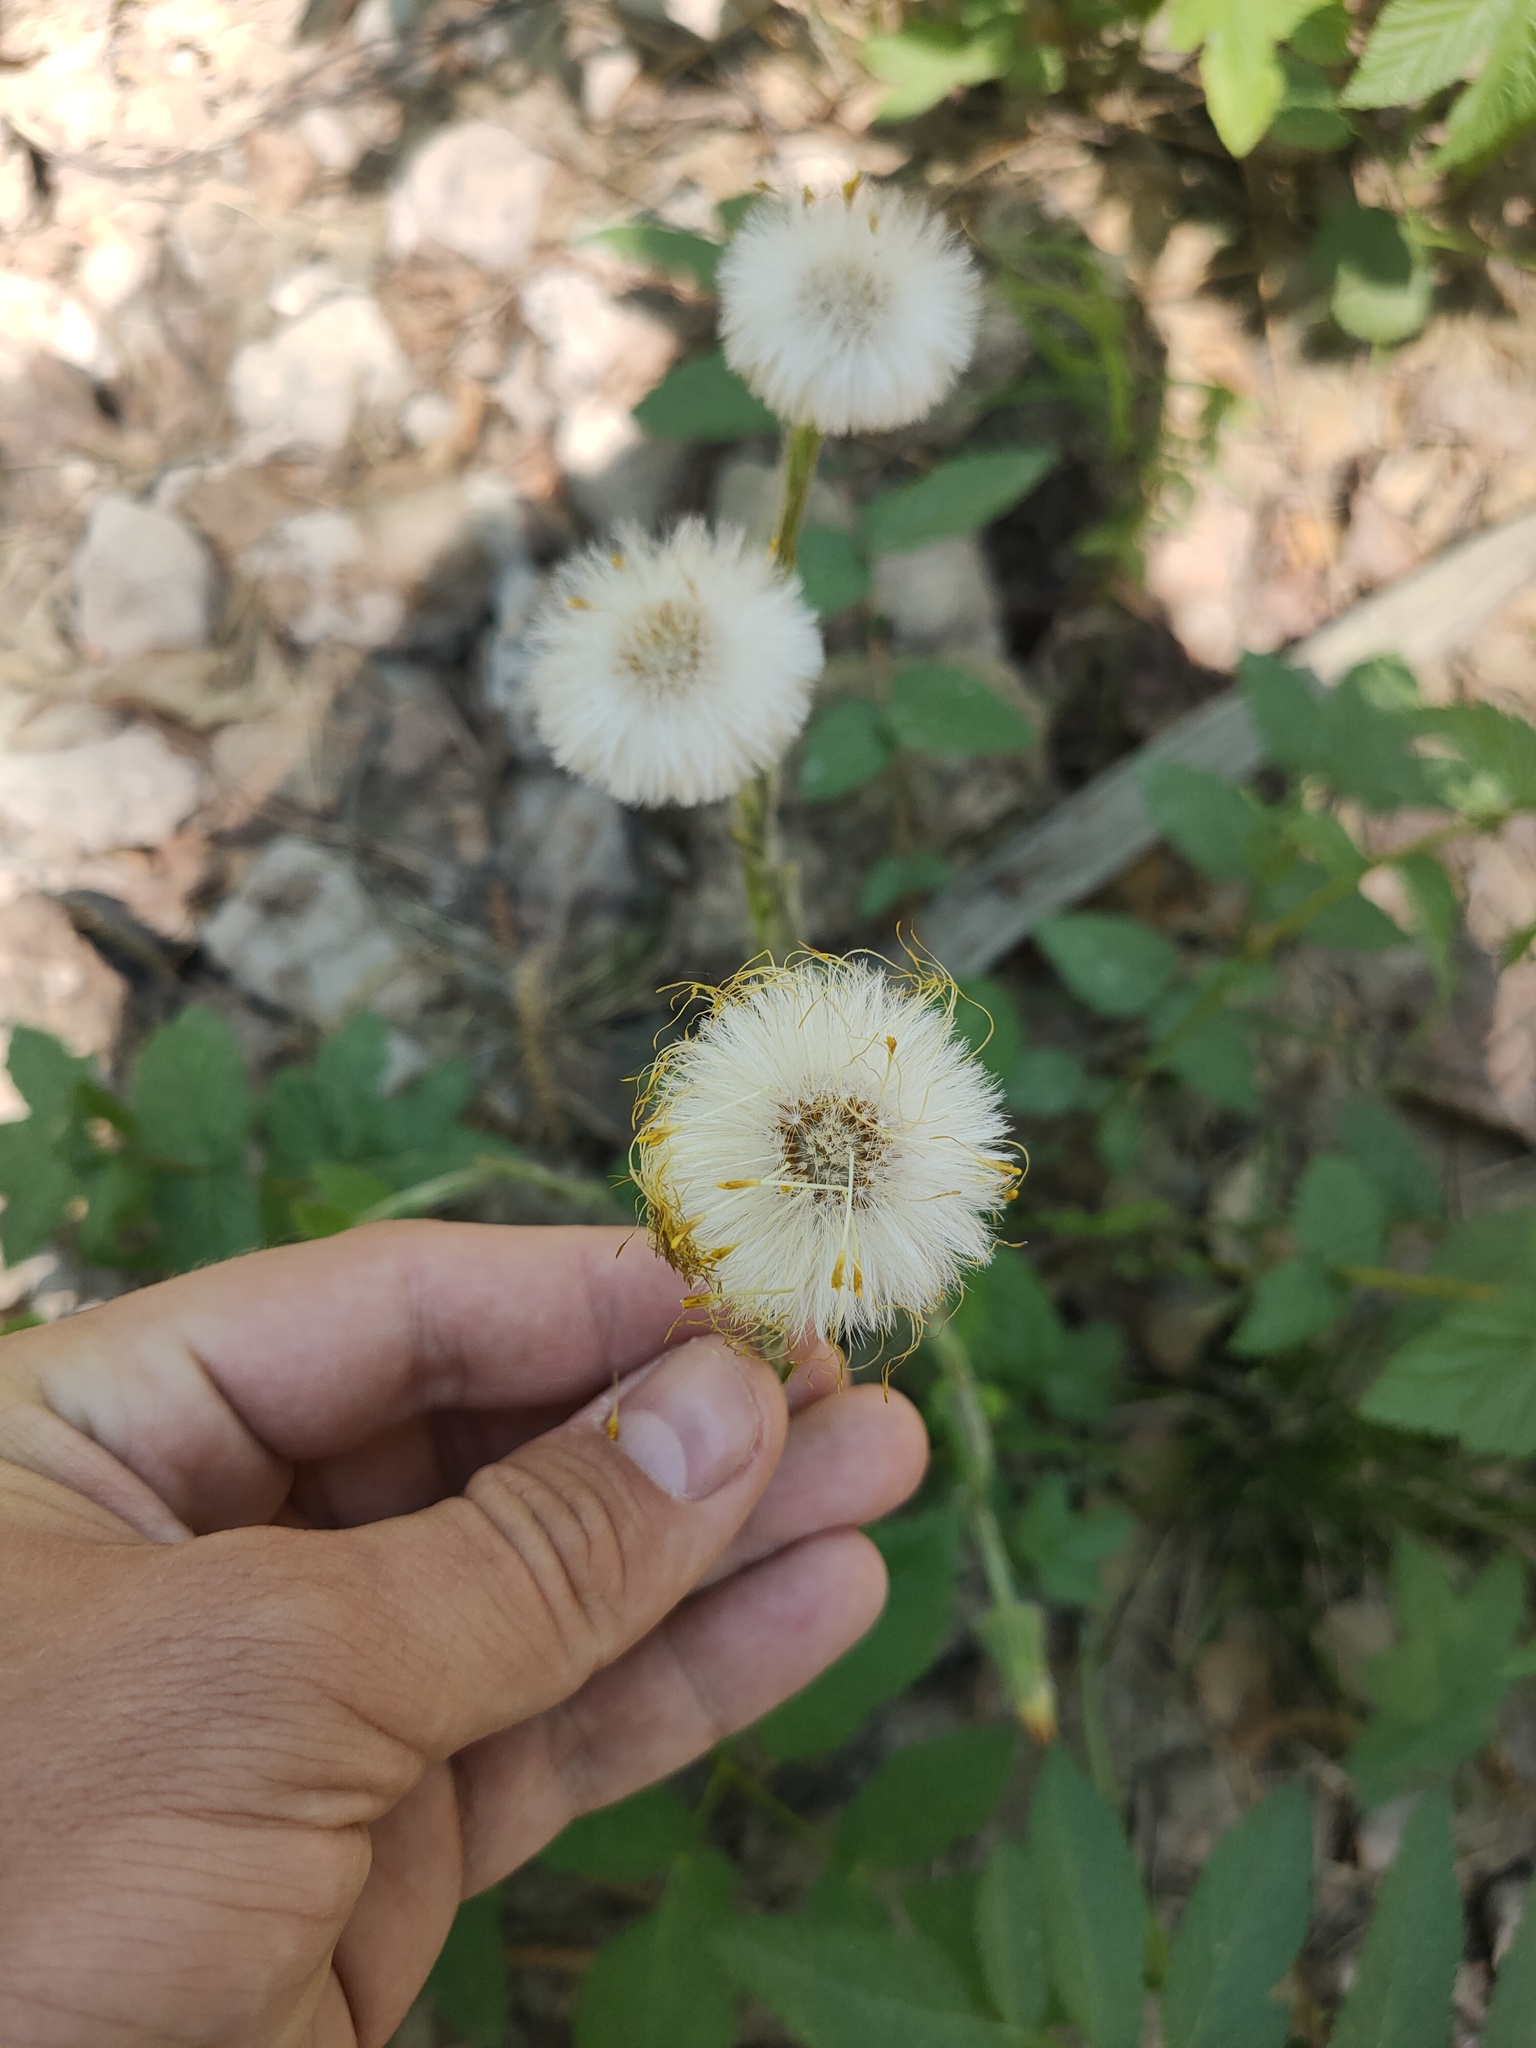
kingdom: Plantae
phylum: Tracheophyta
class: Magnoliopsida
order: Asterales
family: Asteraceae
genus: Tussilago
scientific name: Tussilago farfara
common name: Coltsfoot
